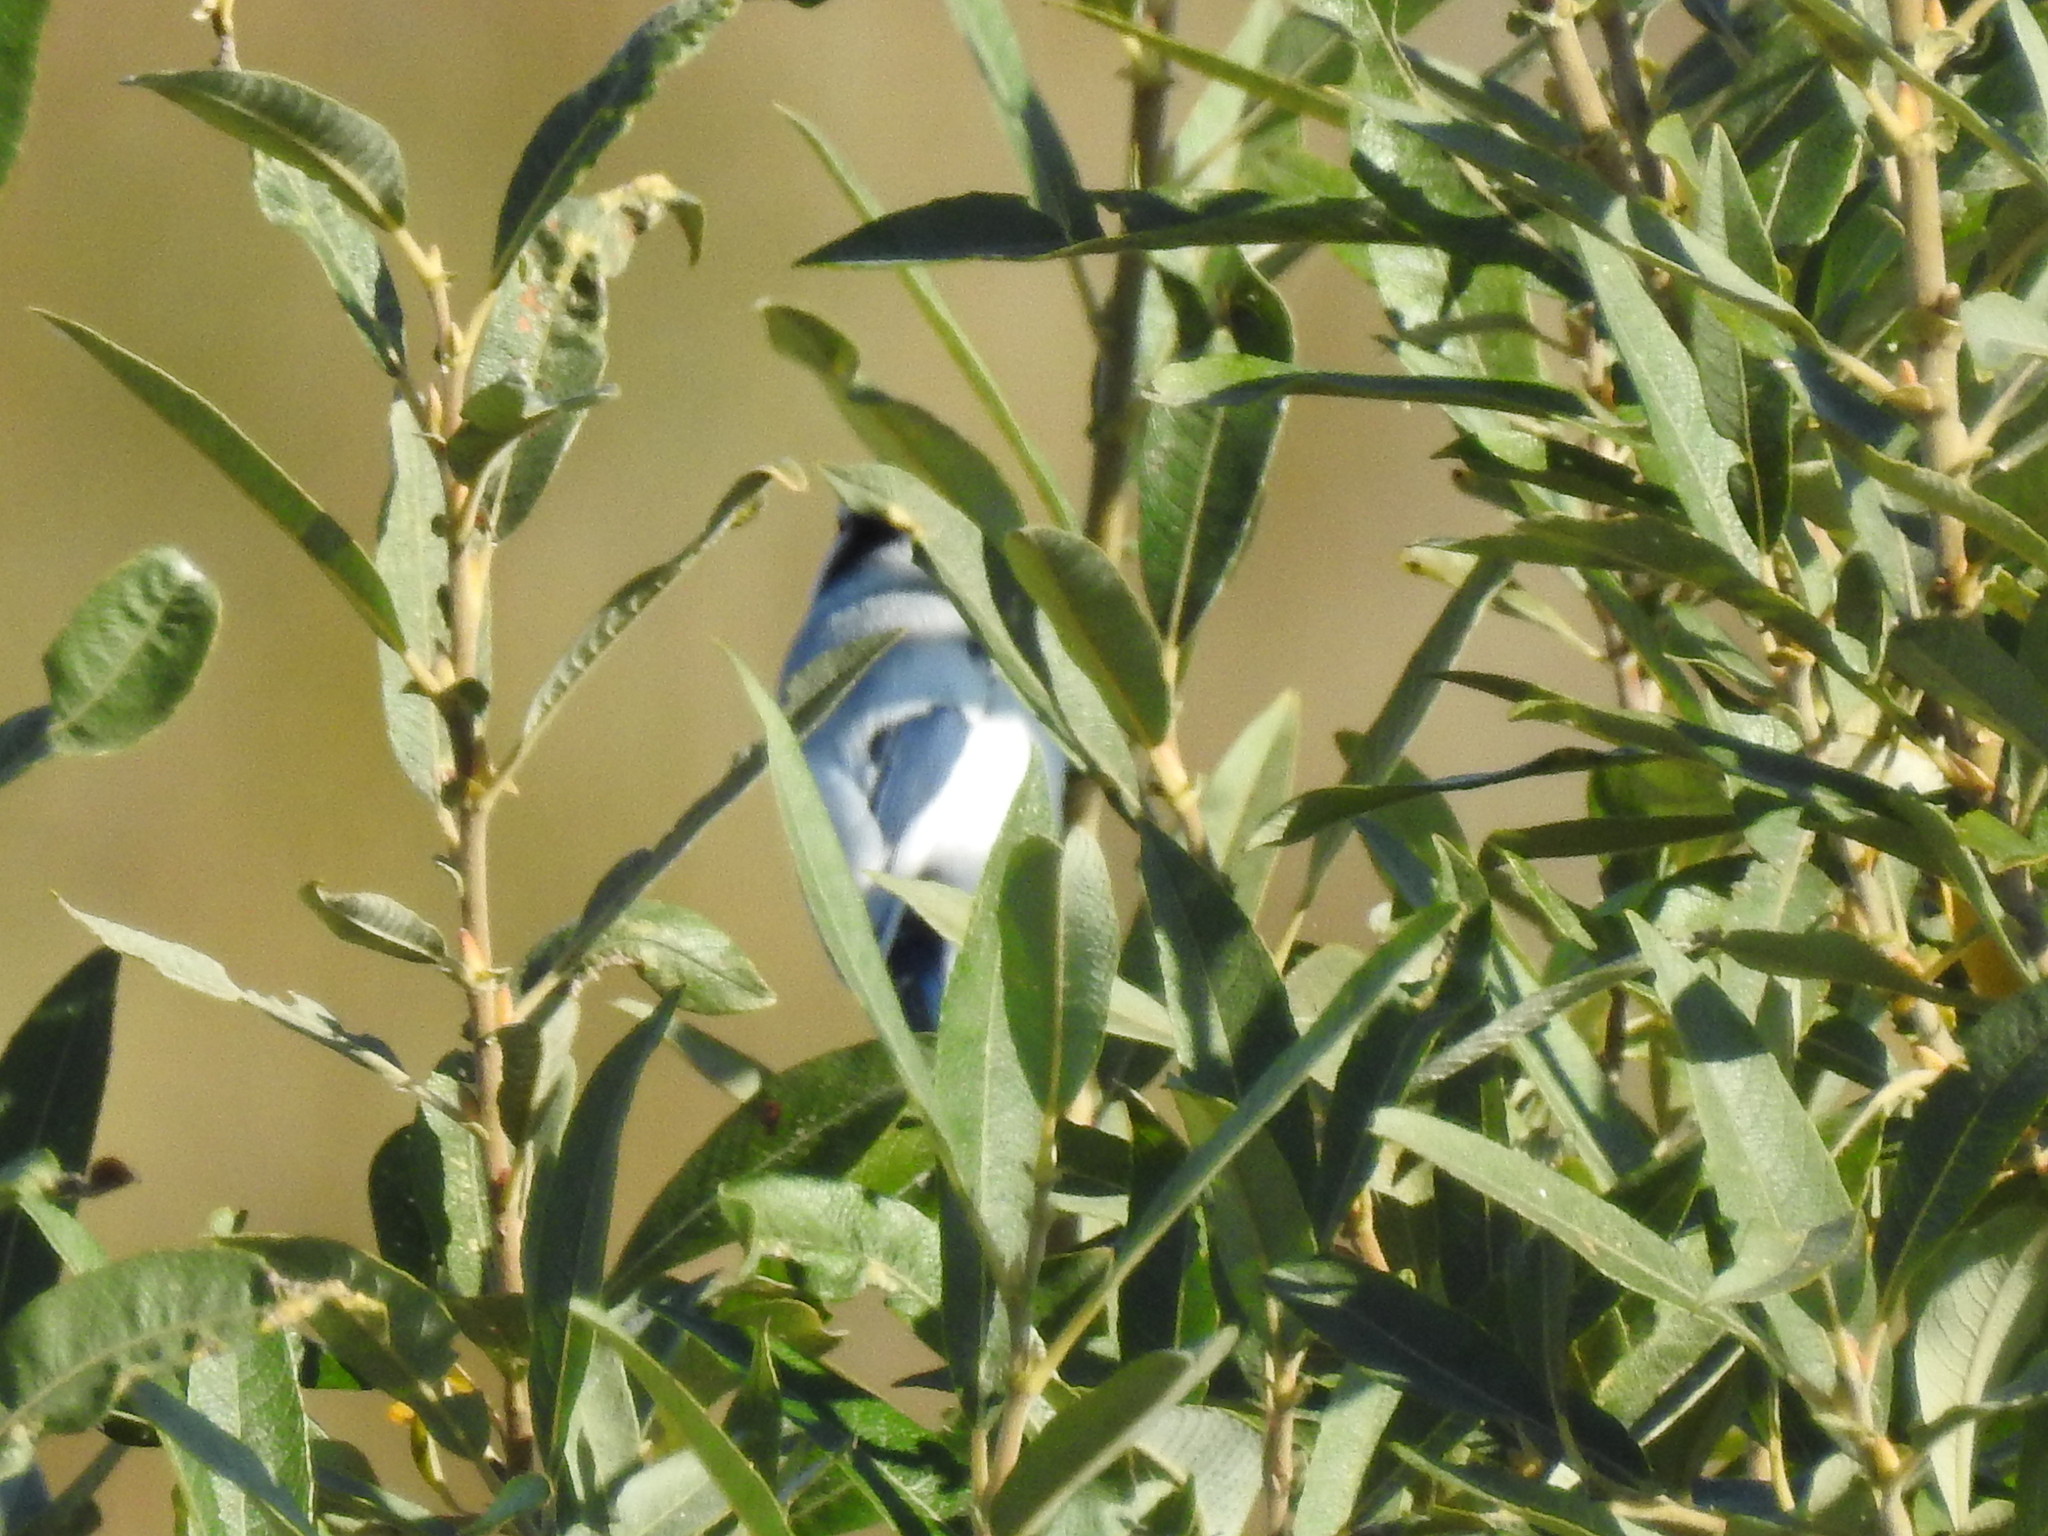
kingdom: Animalia
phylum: Chordata
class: Aves
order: Passeriformes
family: Paridae
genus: Cyanistes
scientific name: Cyanistes cyanus
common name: Azure tit
